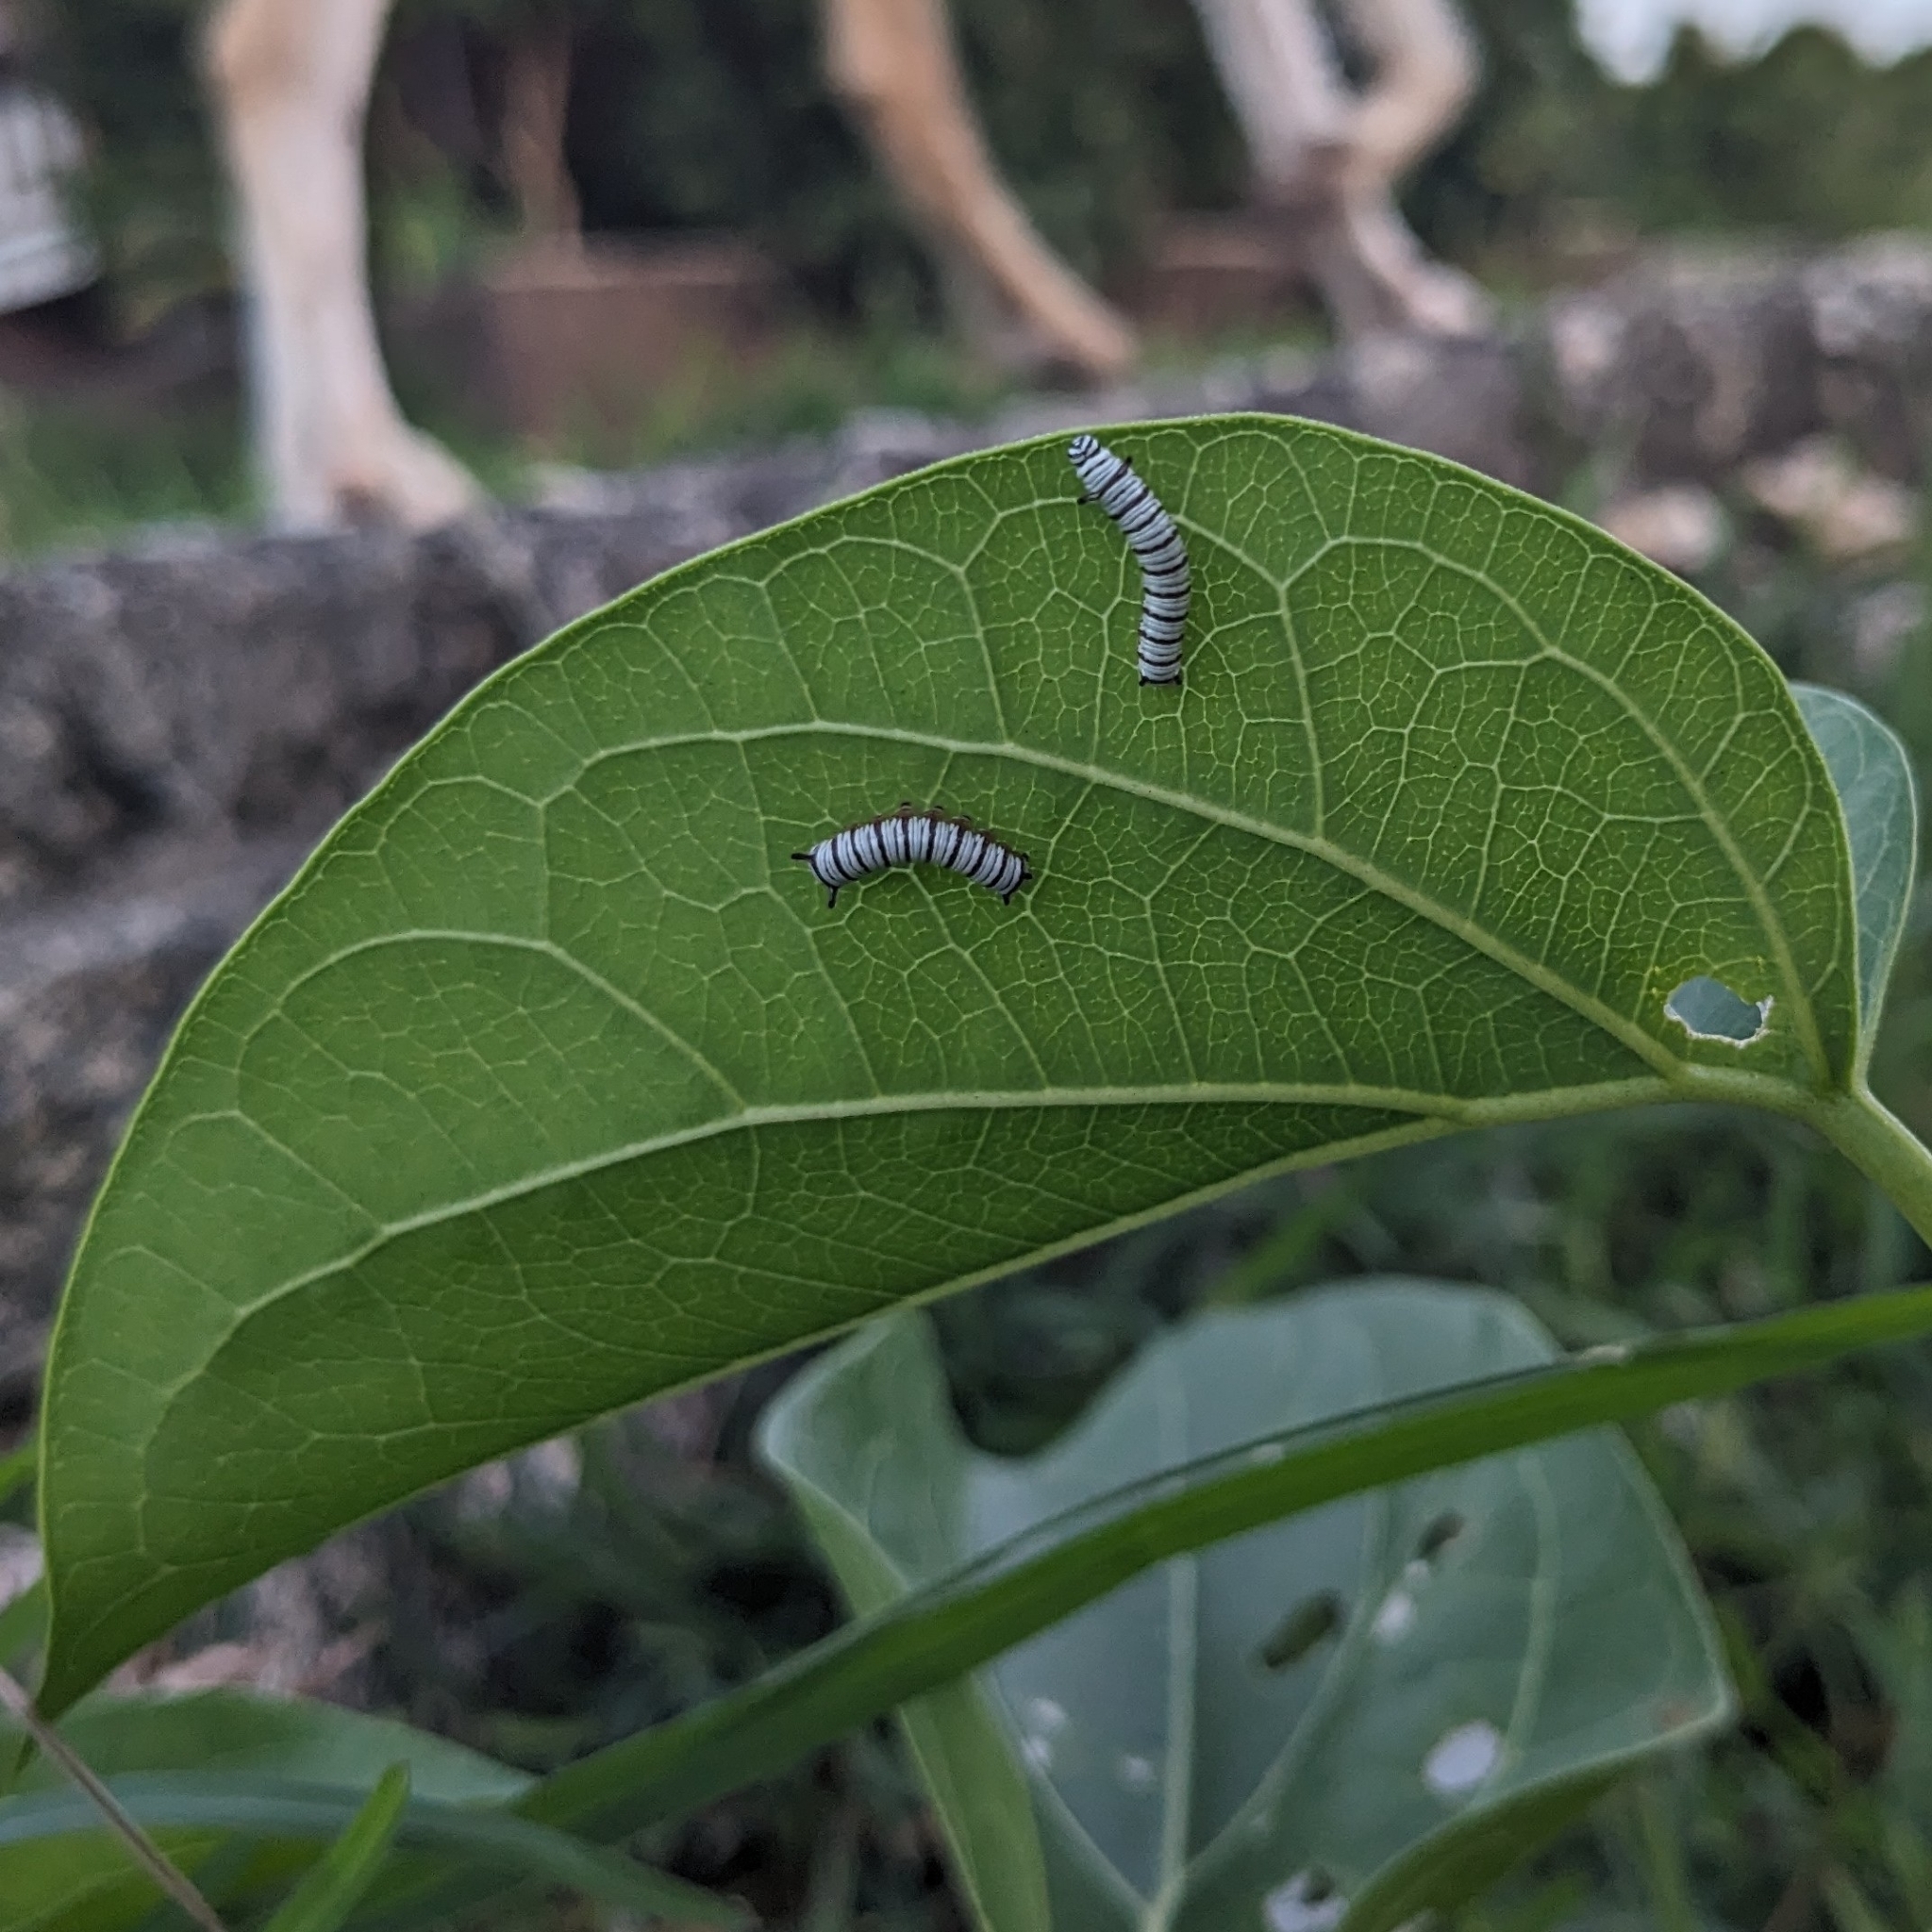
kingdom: Animalia
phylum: Arthropoda
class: Insecta
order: Lepidoptera
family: Nymphalidae
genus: Danaus
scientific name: Danaus chrysippus
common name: Plain tiger
